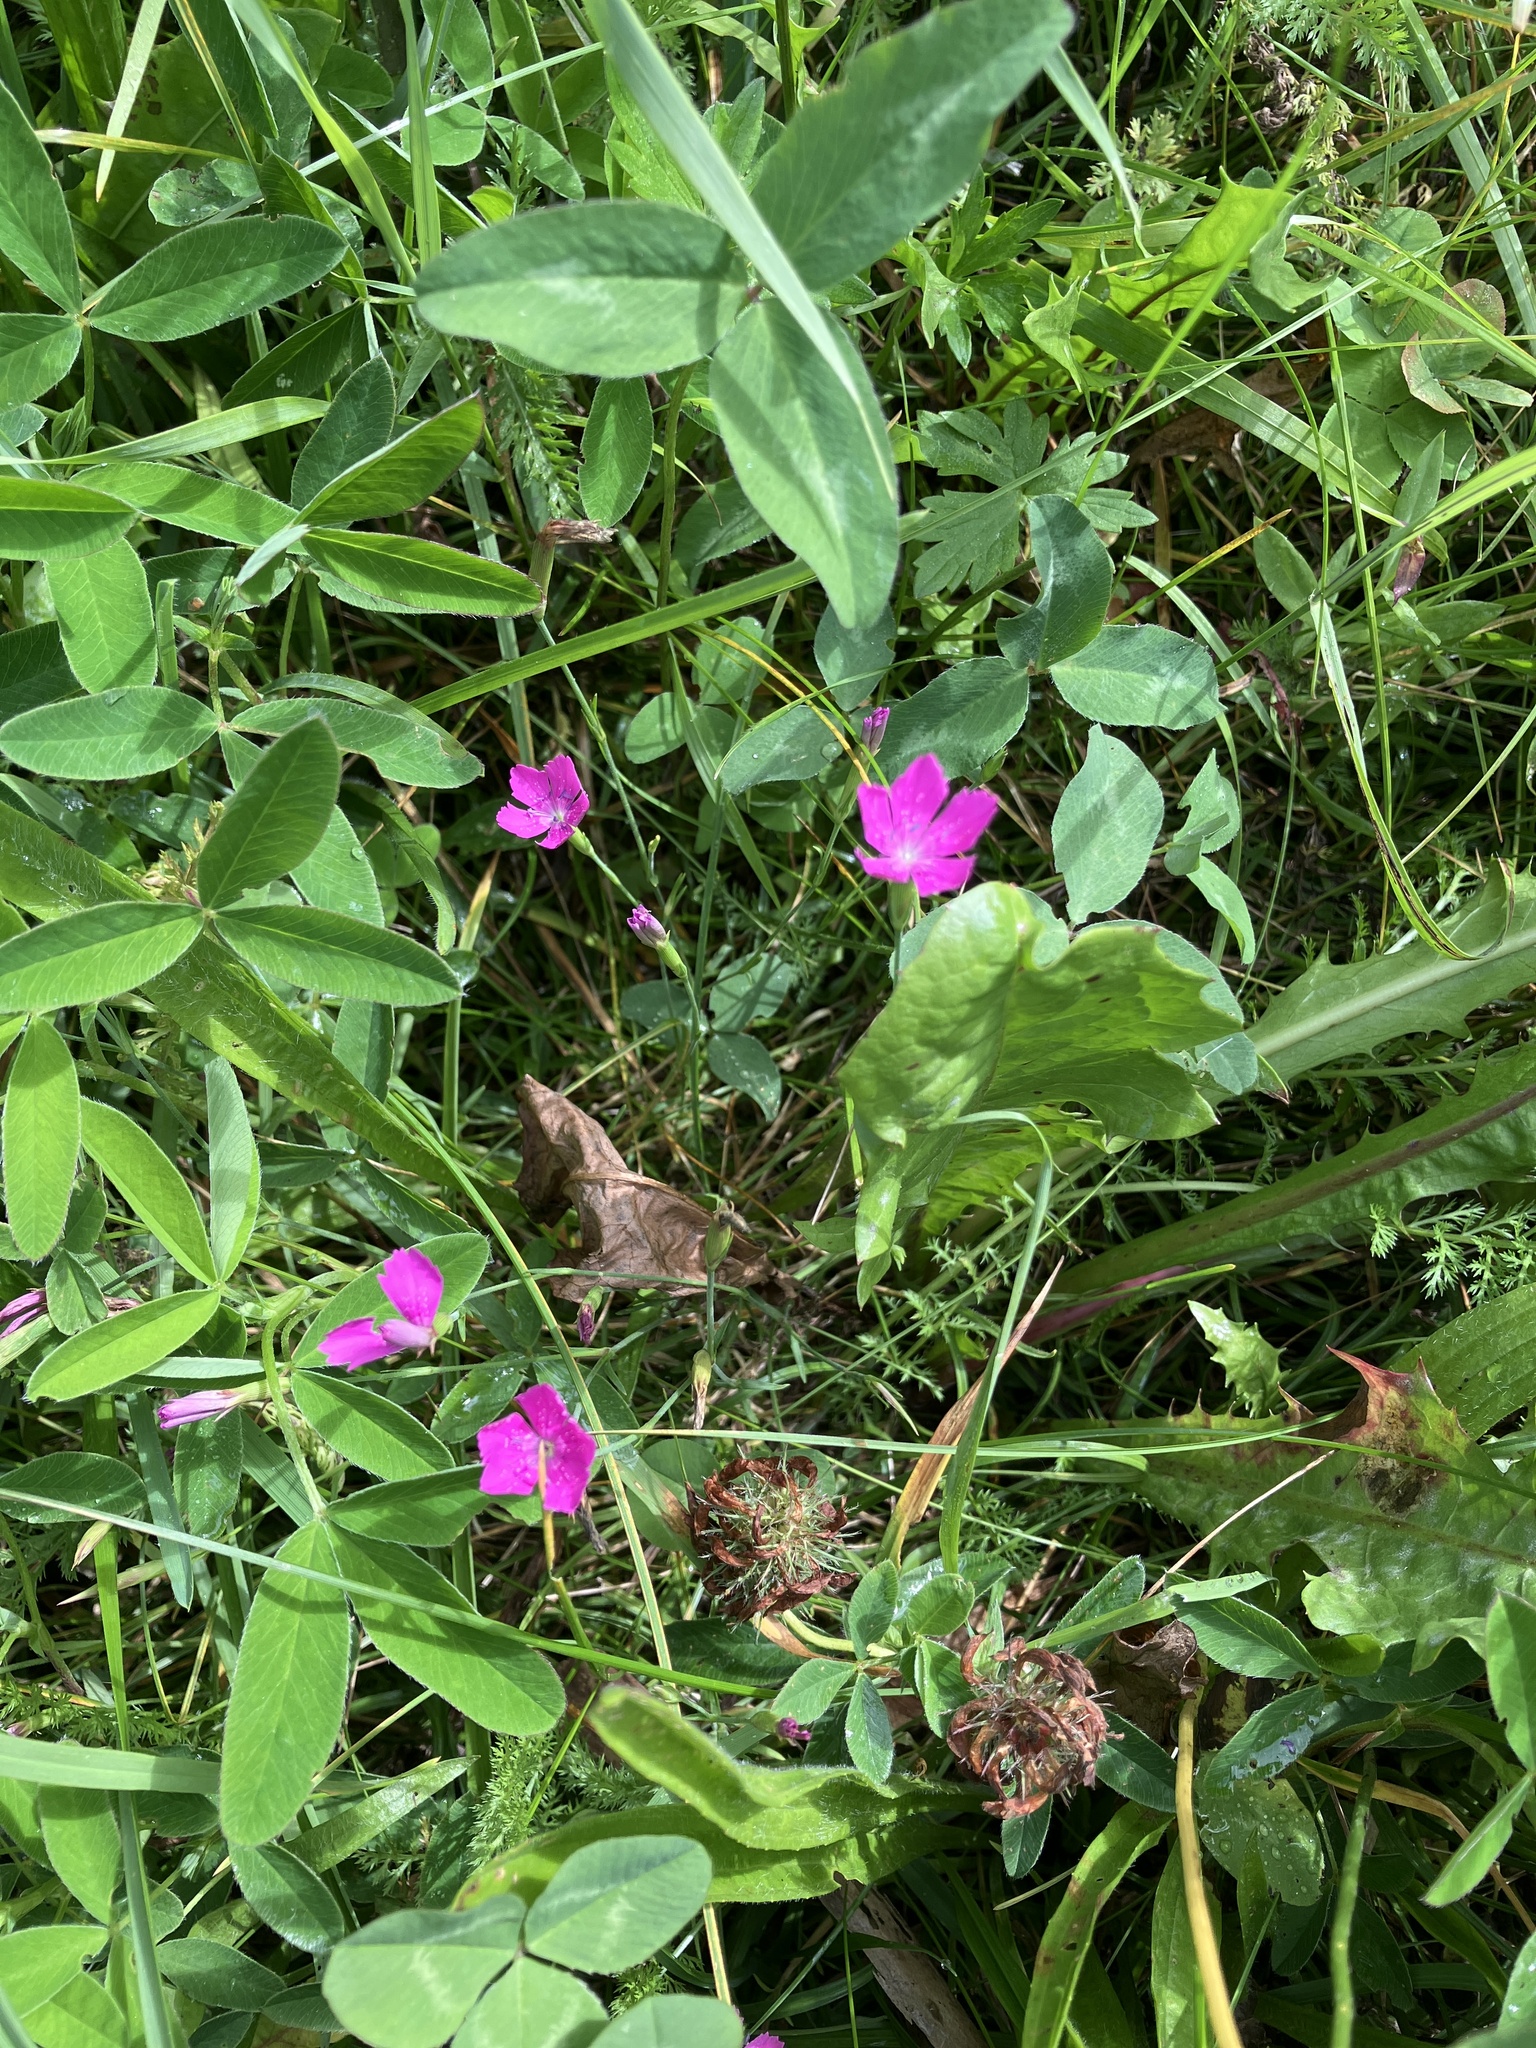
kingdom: Plantae
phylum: Tracheophyta
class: Magnoliopsida
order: Caryophyllales
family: Caryophyllaceae
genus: Dianthus
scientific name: Dianthus deltoides
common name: Maiden pink
